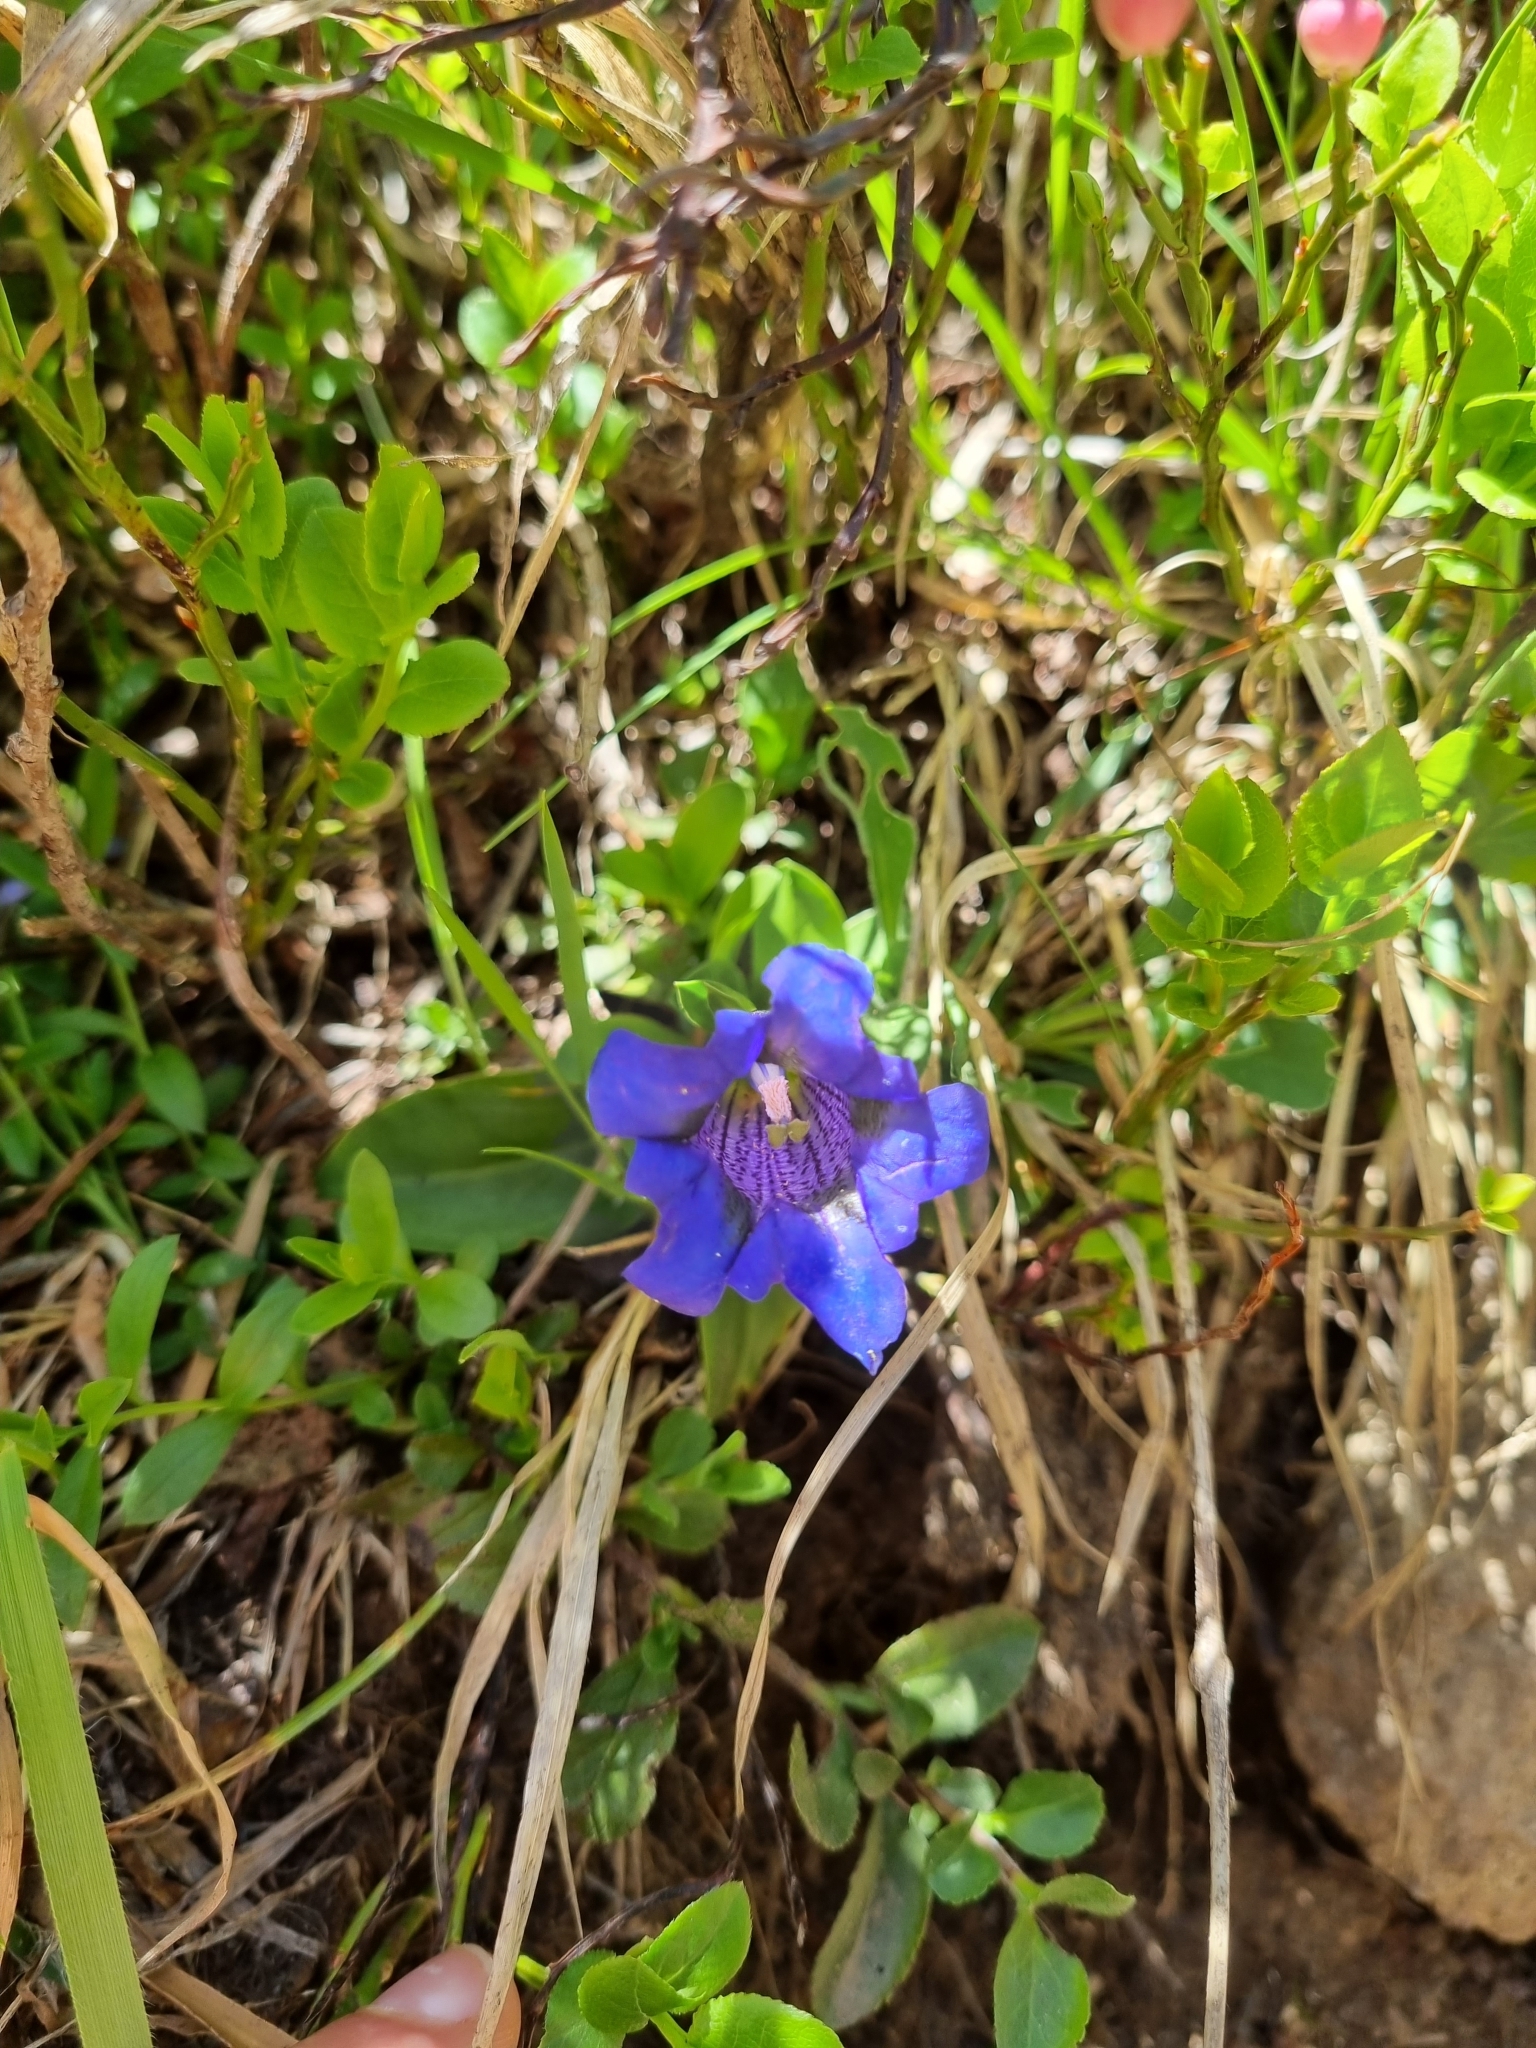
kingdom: Plantae
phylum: Tracheophyta
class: Magnoliopsida
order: Gentianales
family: Gentianaceae
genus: Gentiana
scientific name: Gentiana acaulis
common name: Trumpet gentian
